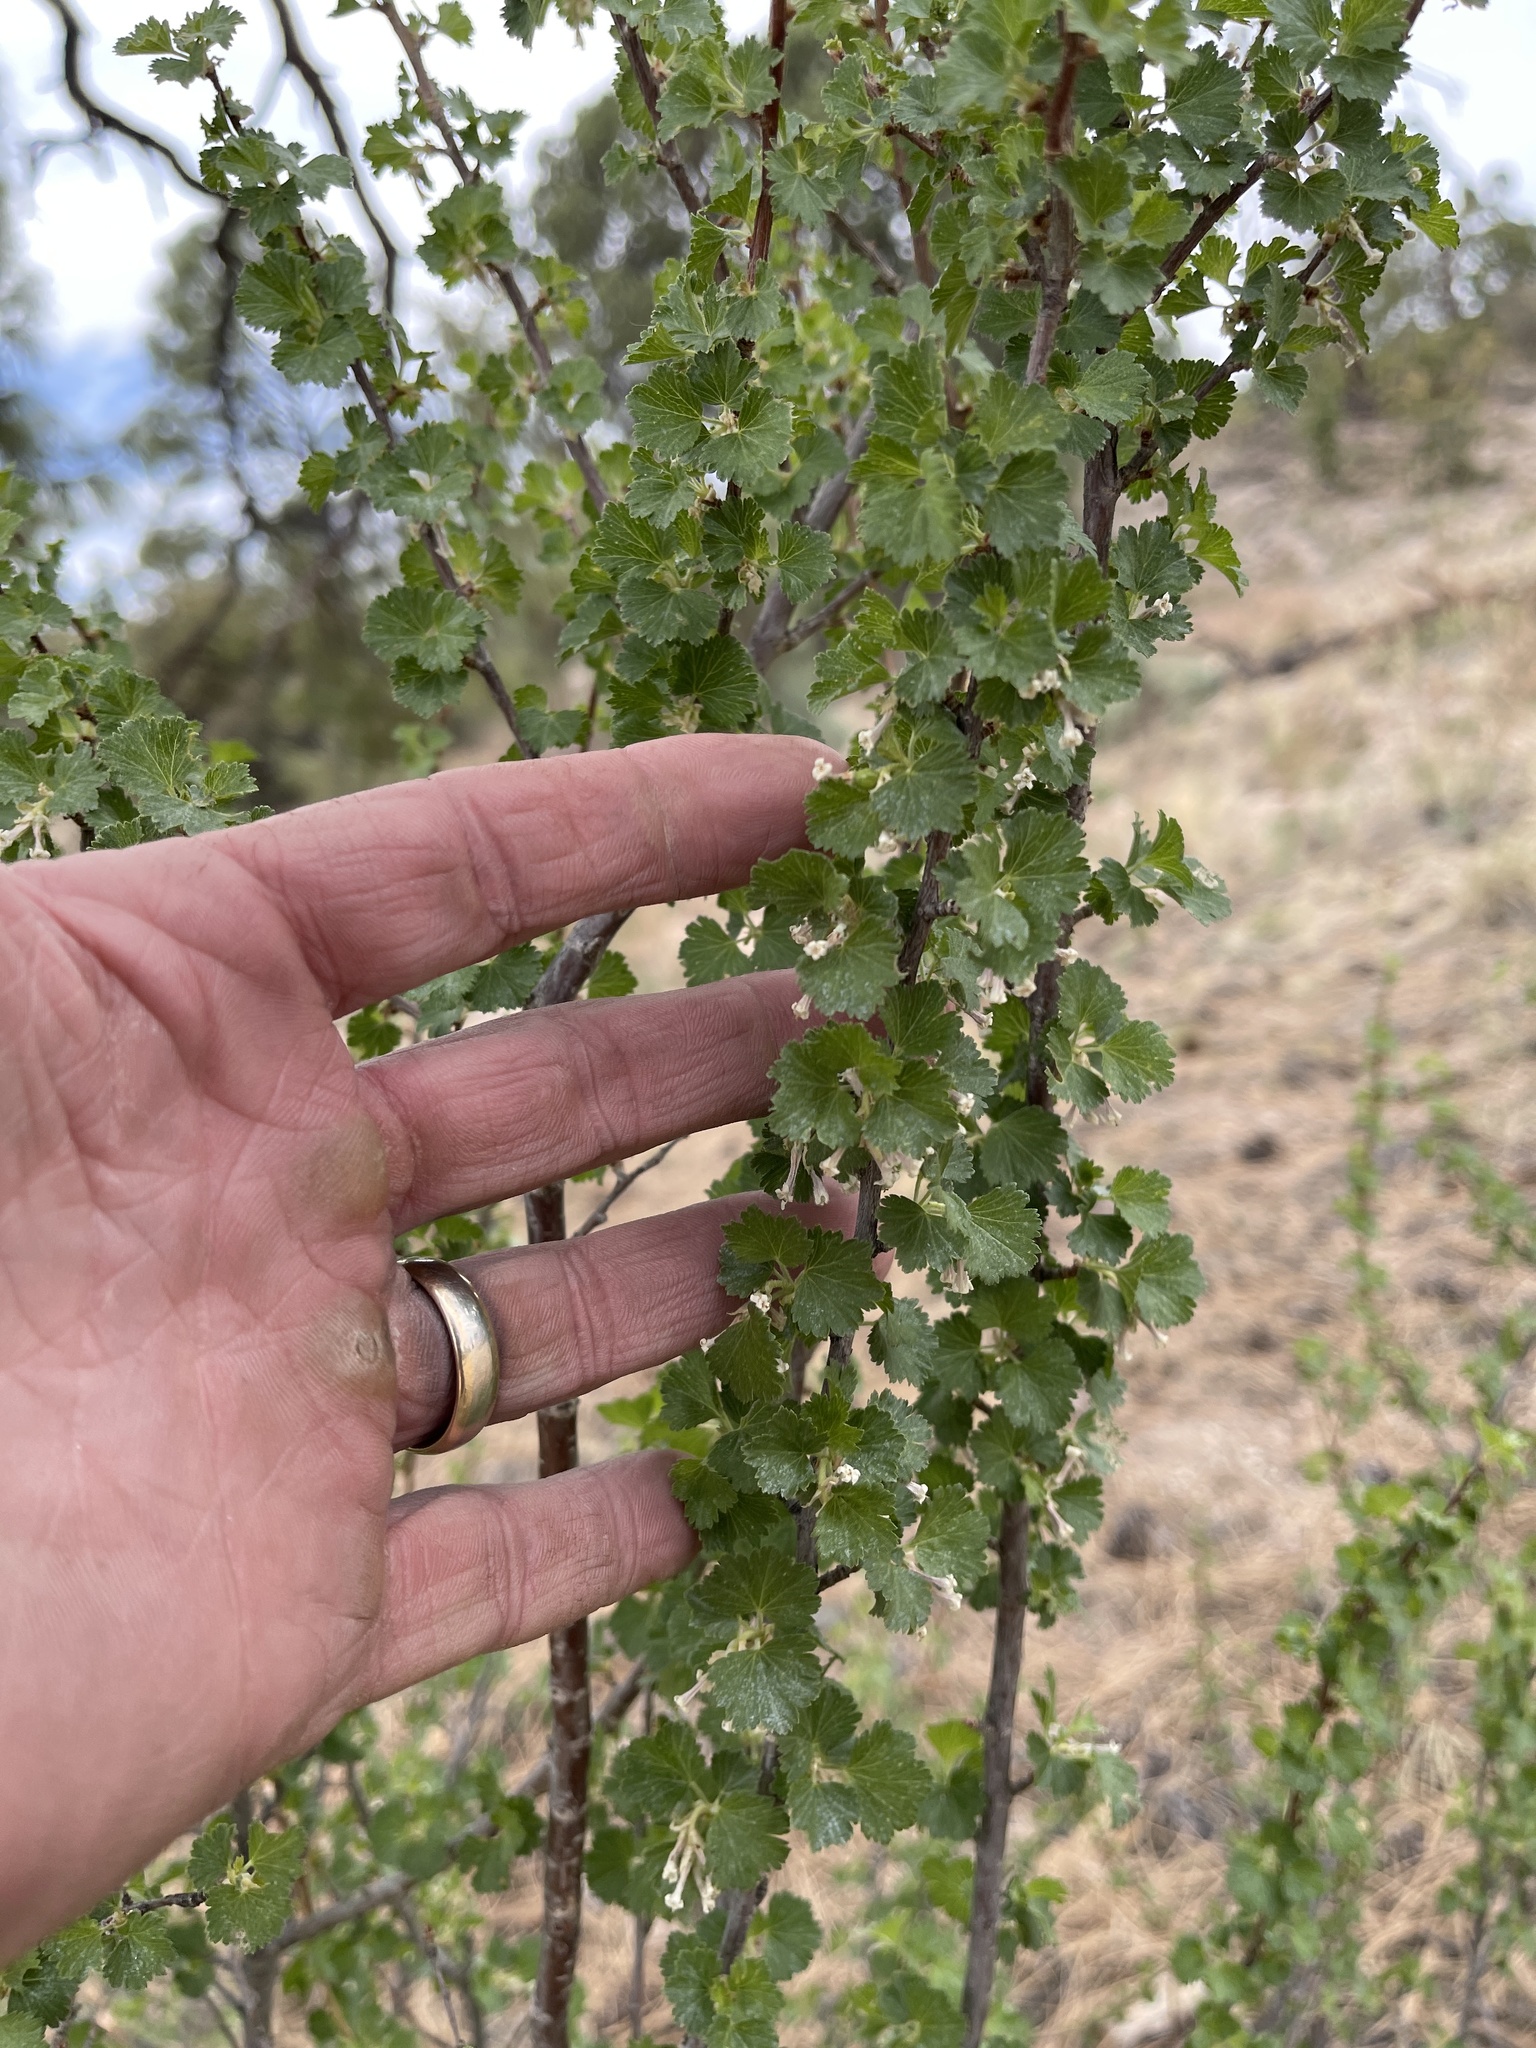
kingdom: Plantae
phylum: Tracheophyta
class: Magnoliopsida
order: Saxifragales
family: Grossulariaceae
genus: Ribes
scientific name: Ribes cereum
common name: Wax currant
